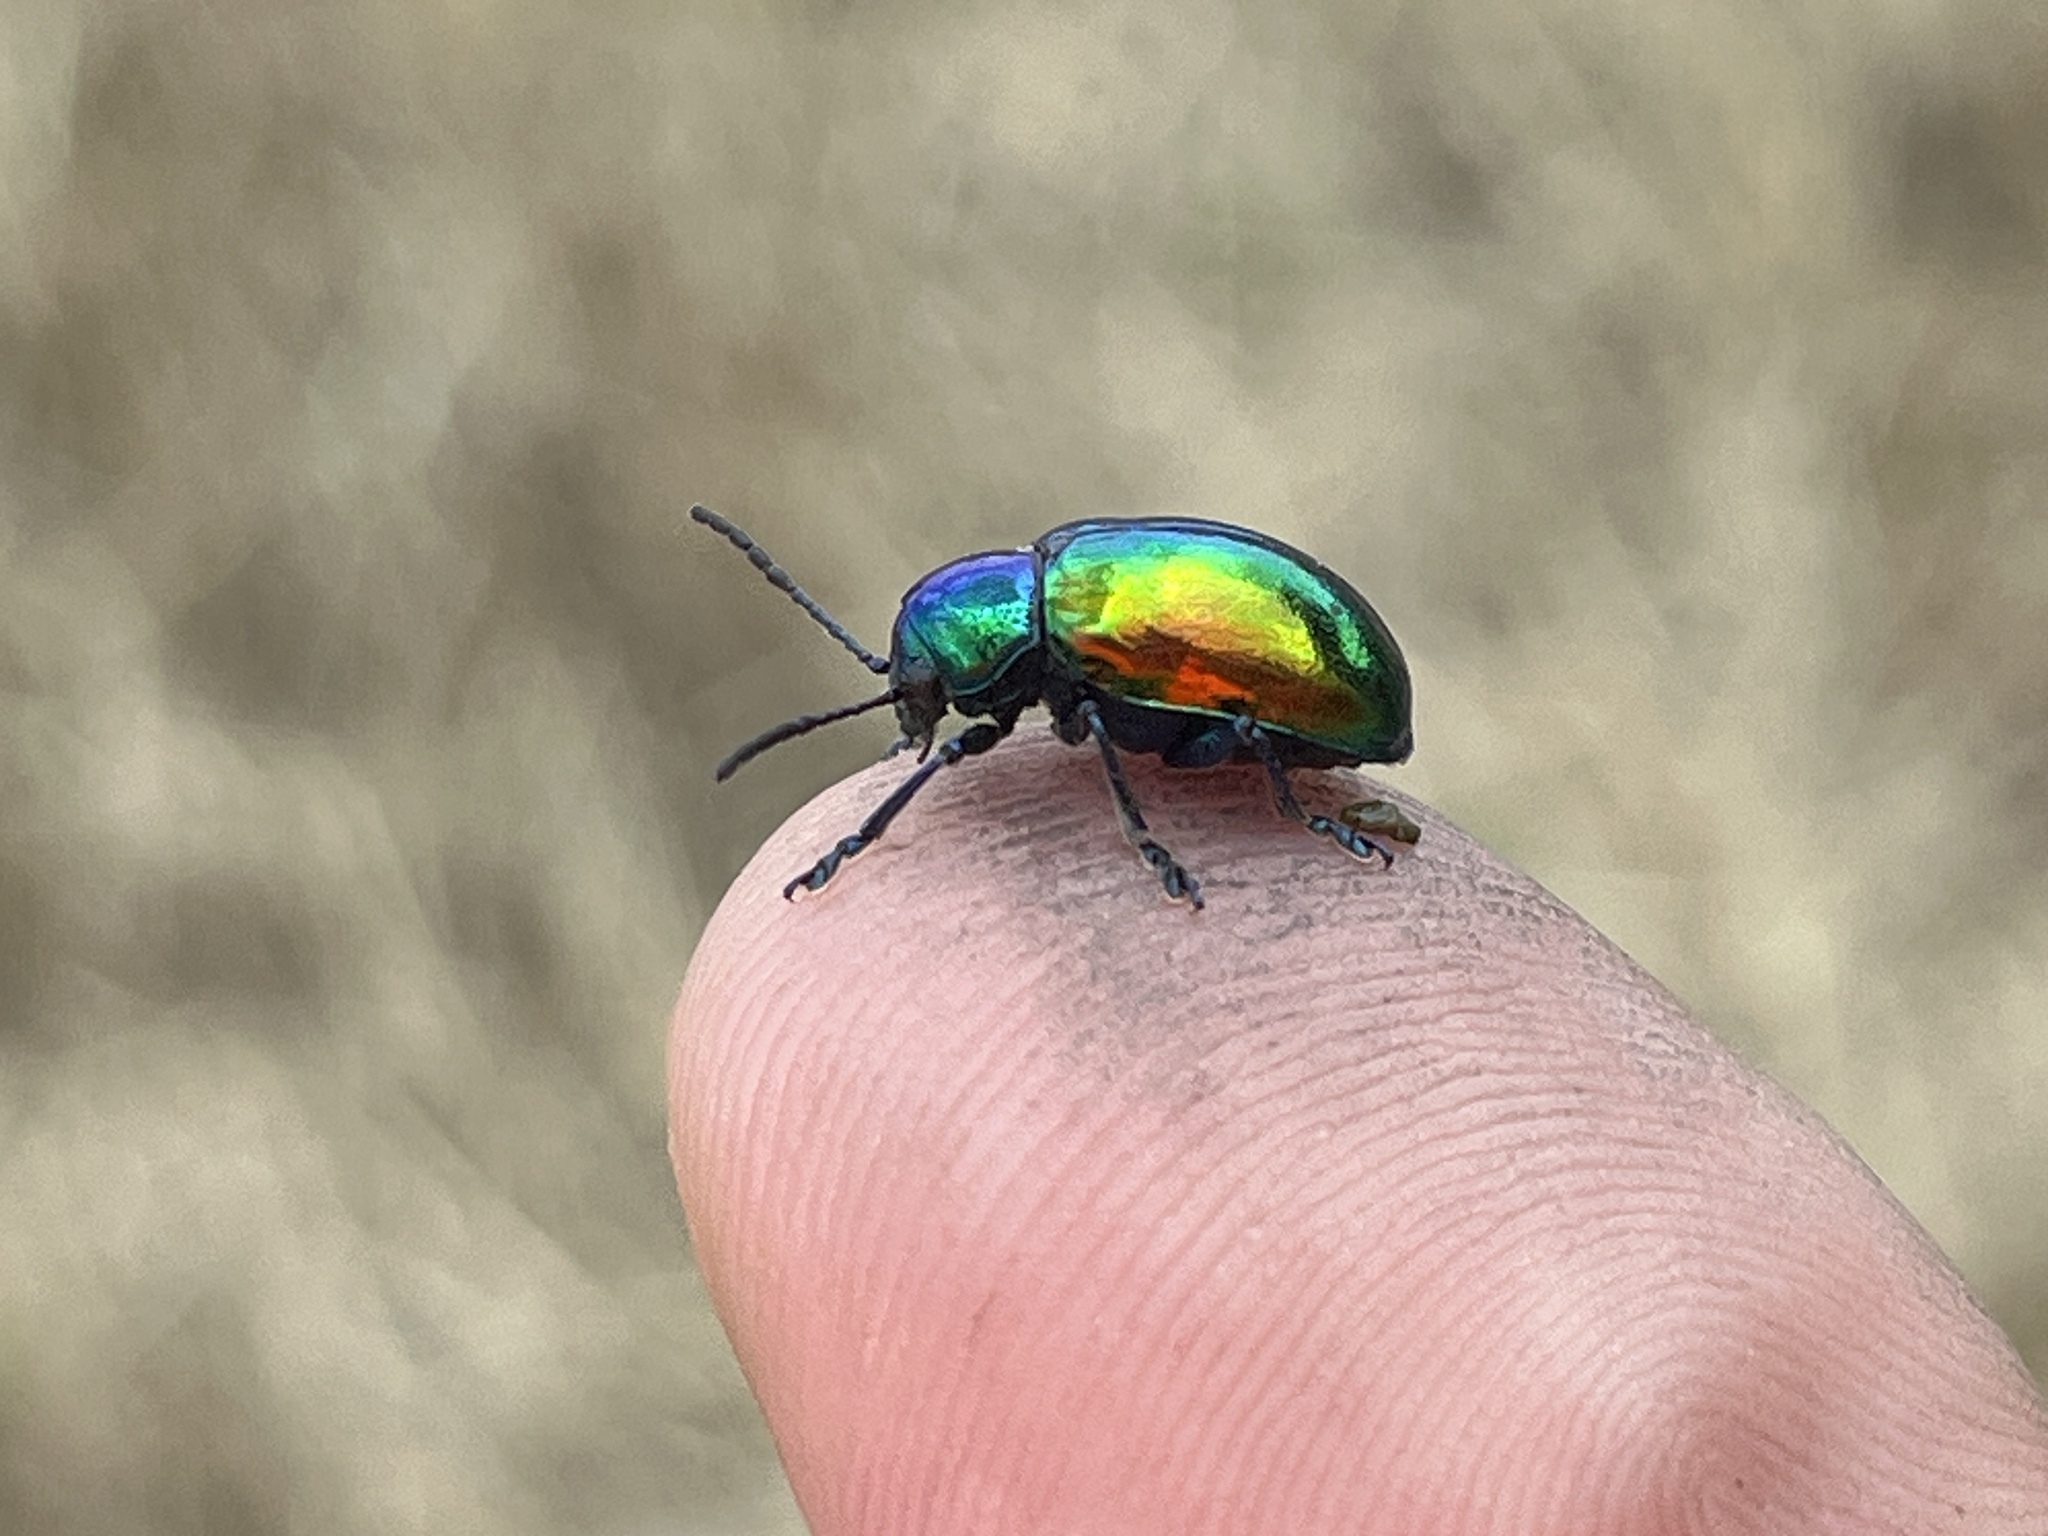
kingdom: Animalia
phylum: Arthropoda
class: Insecta
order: Coleoptera
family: Chrysomelidae
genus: Chrysochus
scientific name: Chrysochus auratus
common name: Dogbane leaf beetle
